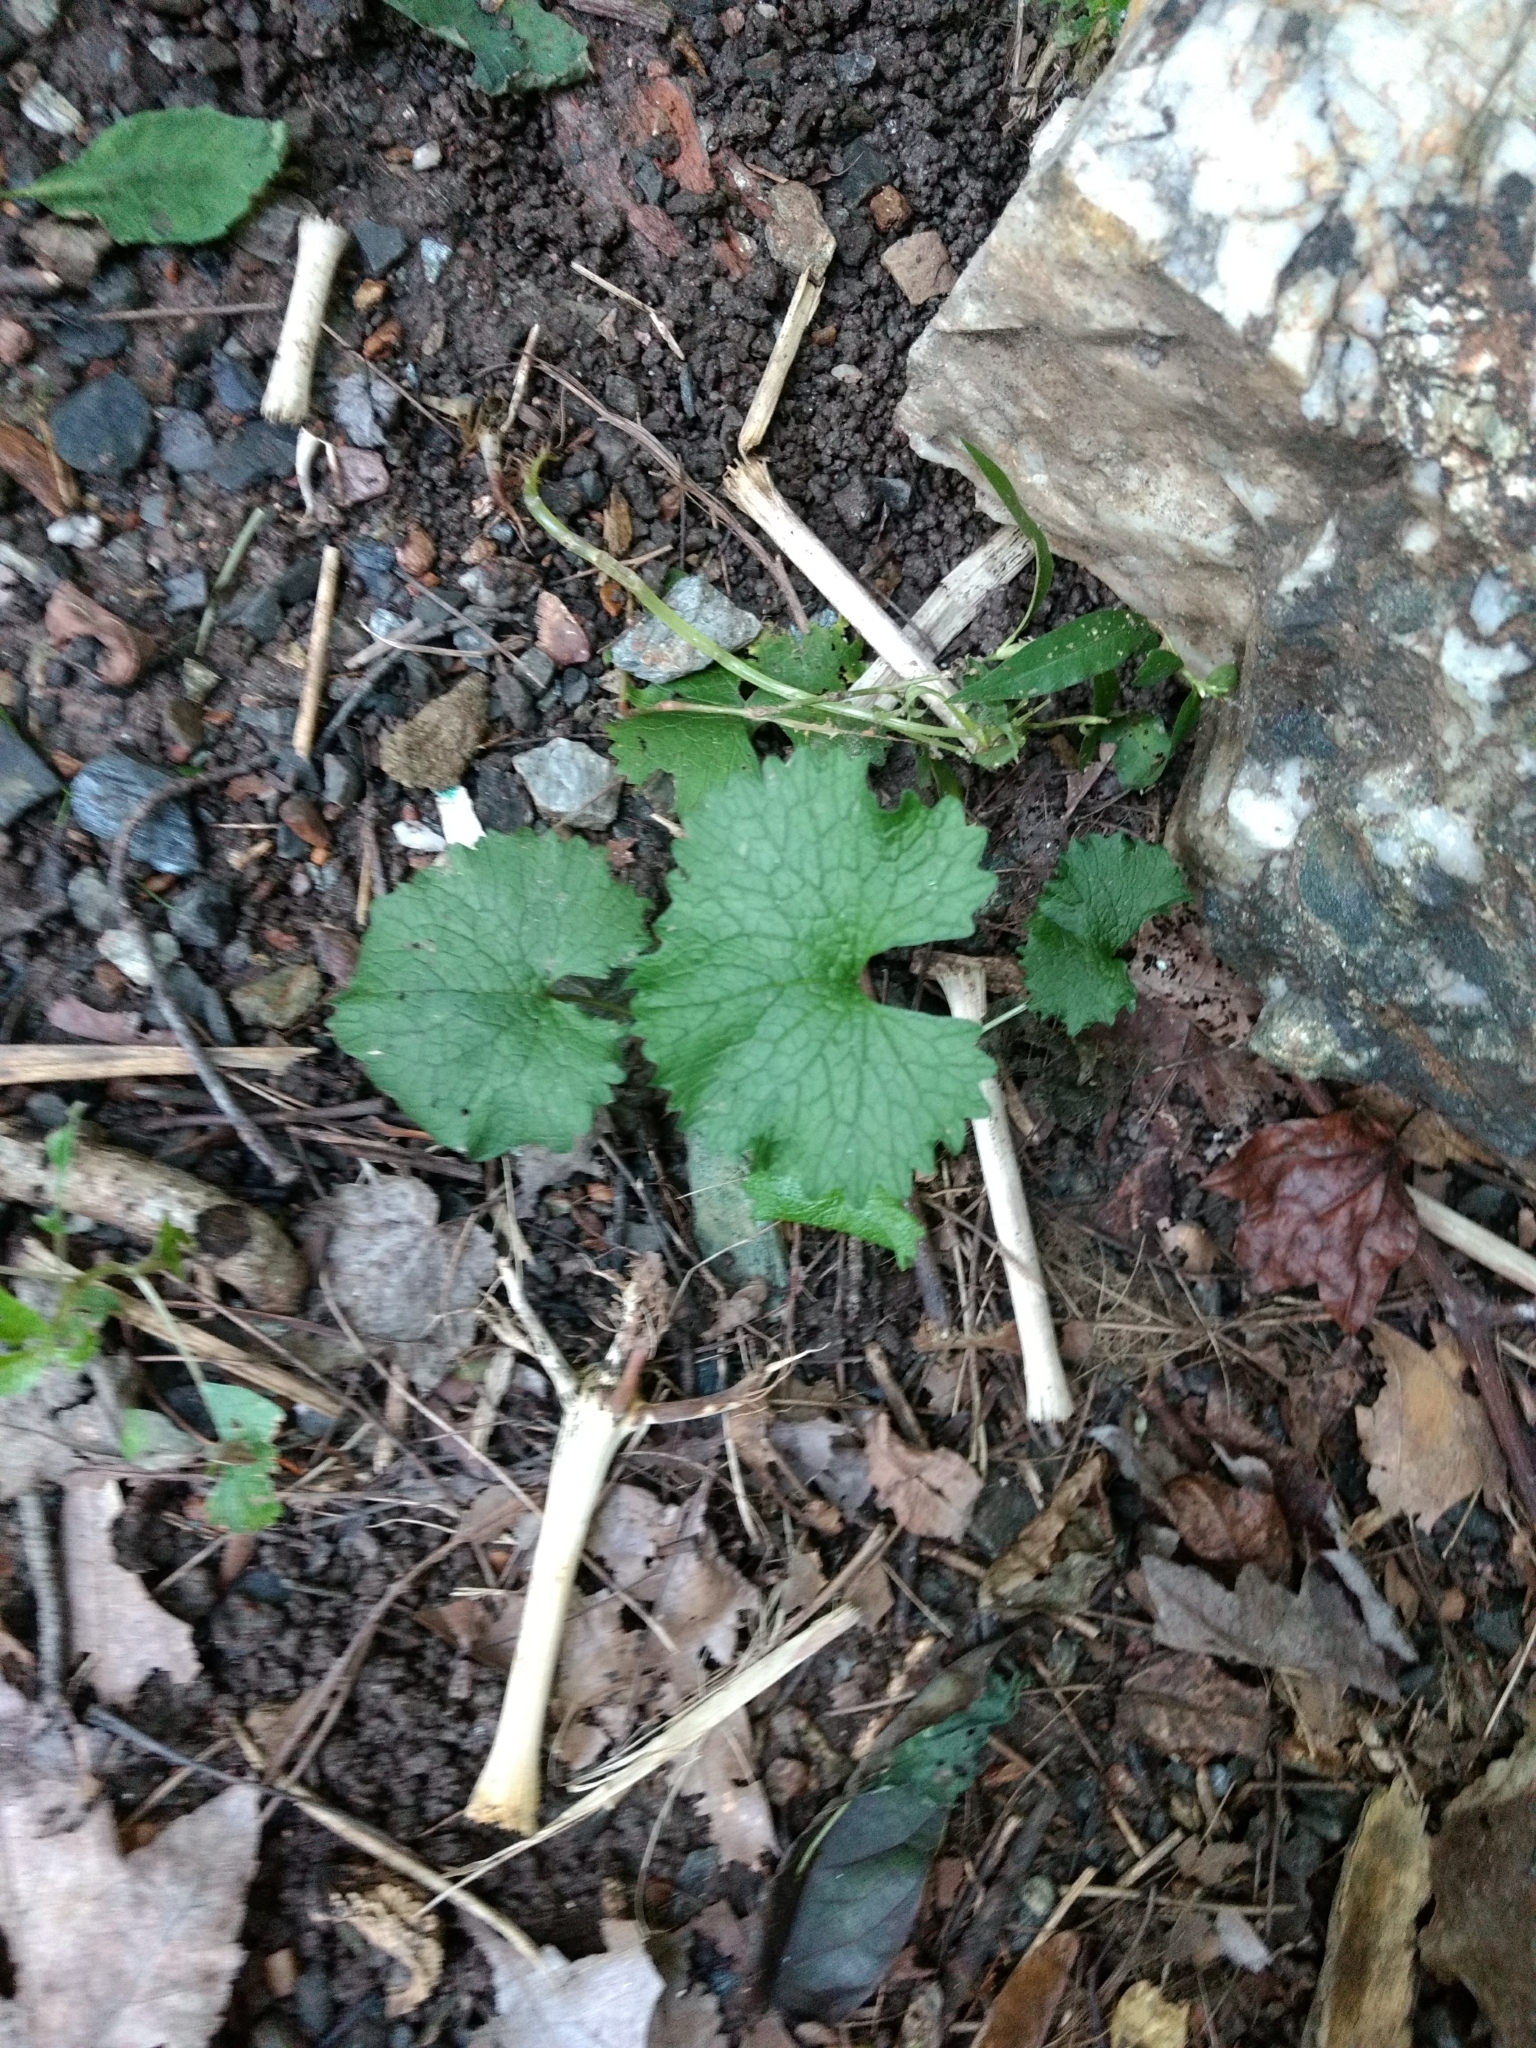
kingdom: Plantae
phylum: Tracheophyta
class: Magnoliopsida
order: Brassicales
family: Brassicaceae
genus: Alliaria
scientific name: Alliaria petiolata
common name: Garlic mustard
